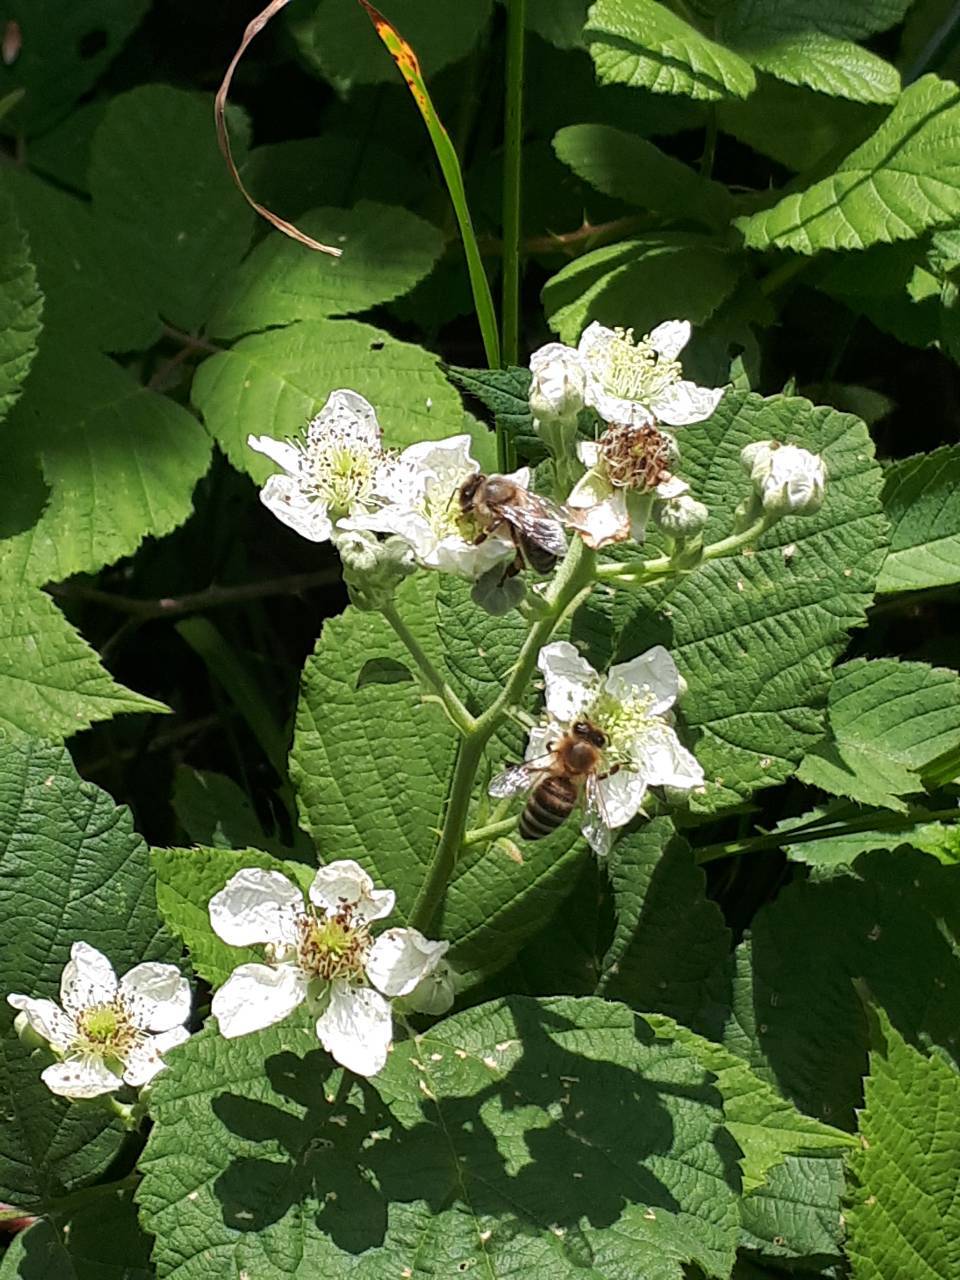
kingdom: Animalia
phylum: Arthropoda
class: Insecta
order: Hymenoptera
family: Apidae
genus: Apis
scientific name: Apis mellifera
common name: Honey bee
